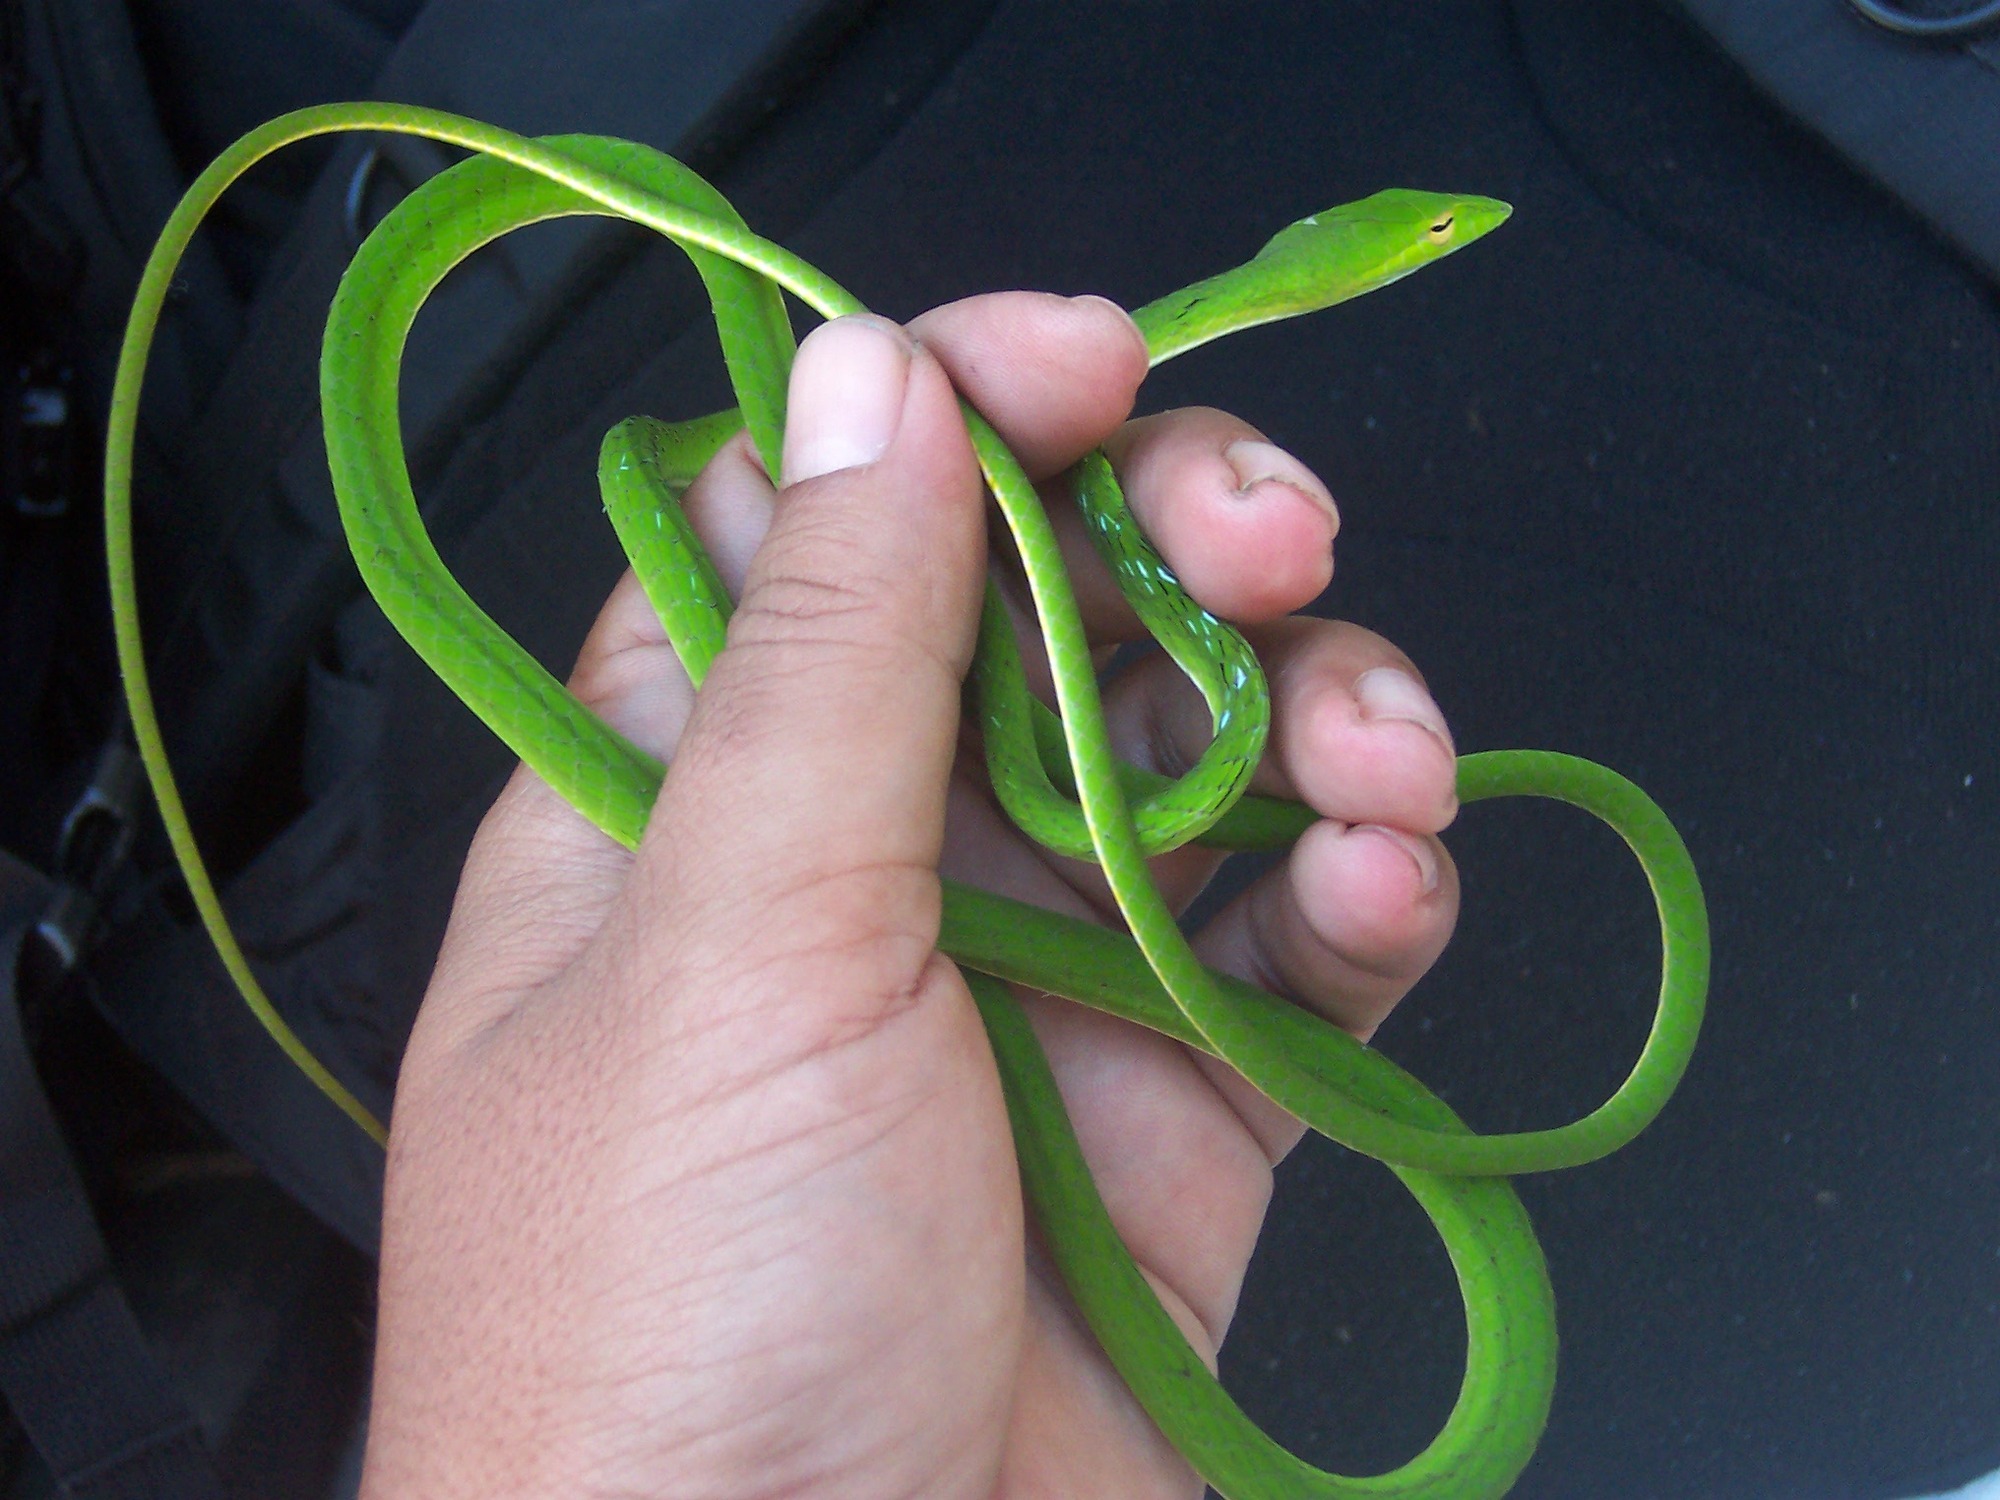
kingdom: Animalia
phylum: Chordata
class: Squamata
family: Colubridae
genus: Ahaetulla
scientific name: Ahaetulla prasina
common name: Oriental whip snake
